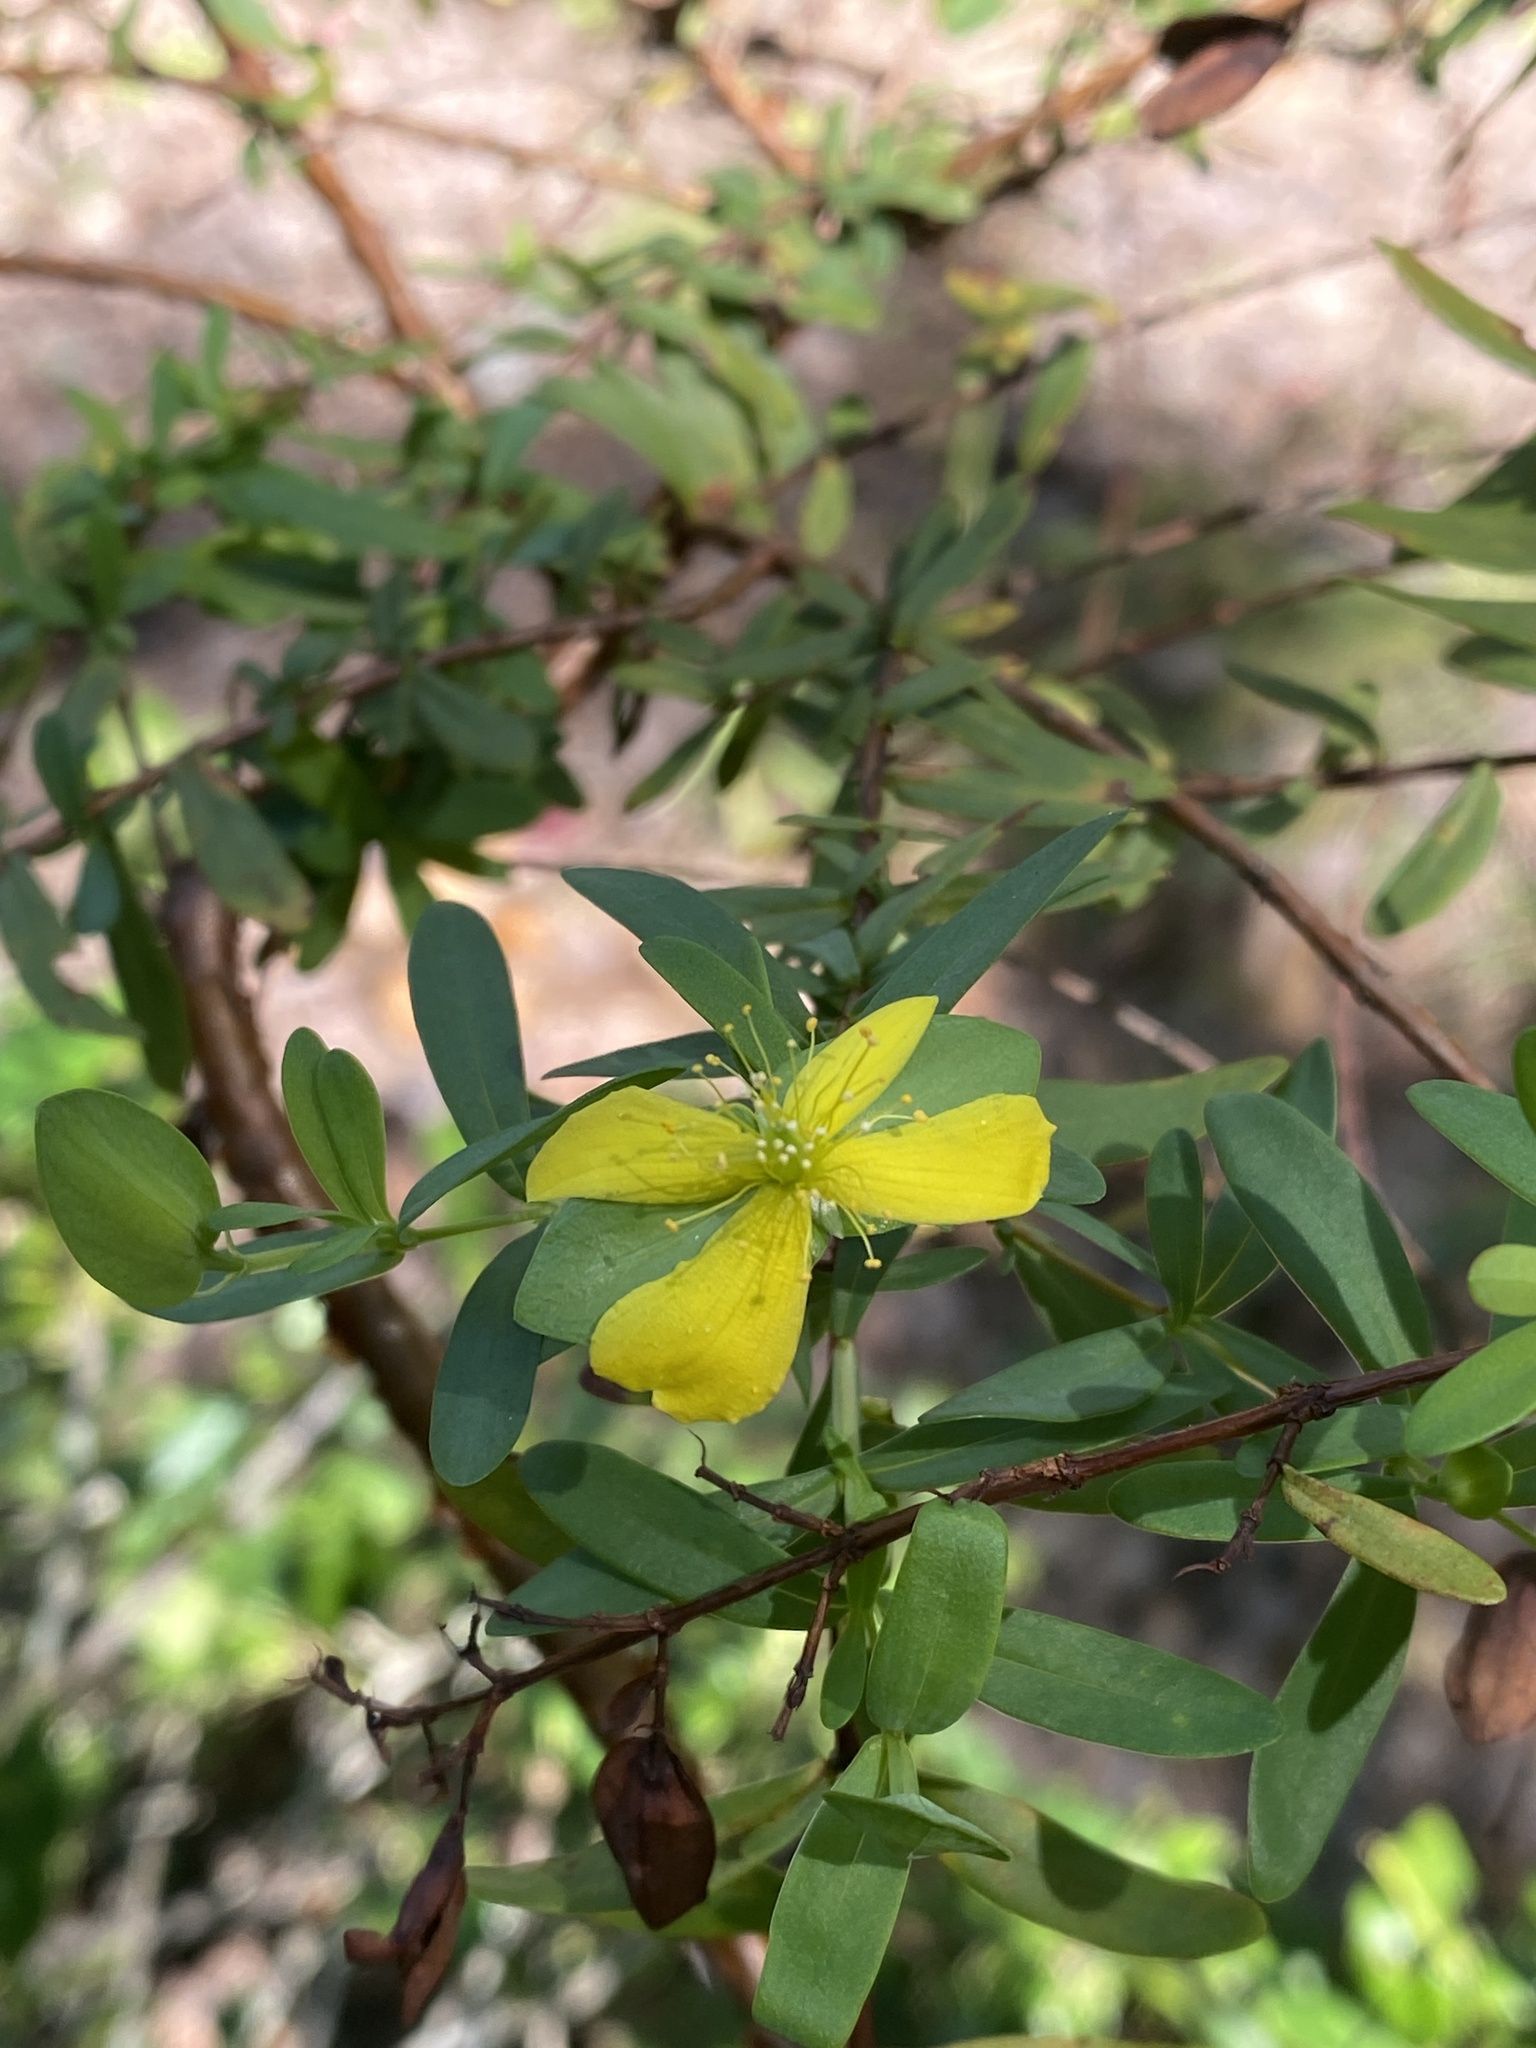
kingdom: Plantae
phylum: Tracheophyta
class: Magnoliopsida
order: Malpighiales
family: Hypericaceae
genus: Hypericum
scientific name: Hypericum hypericoides
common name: St. andrew's cross
